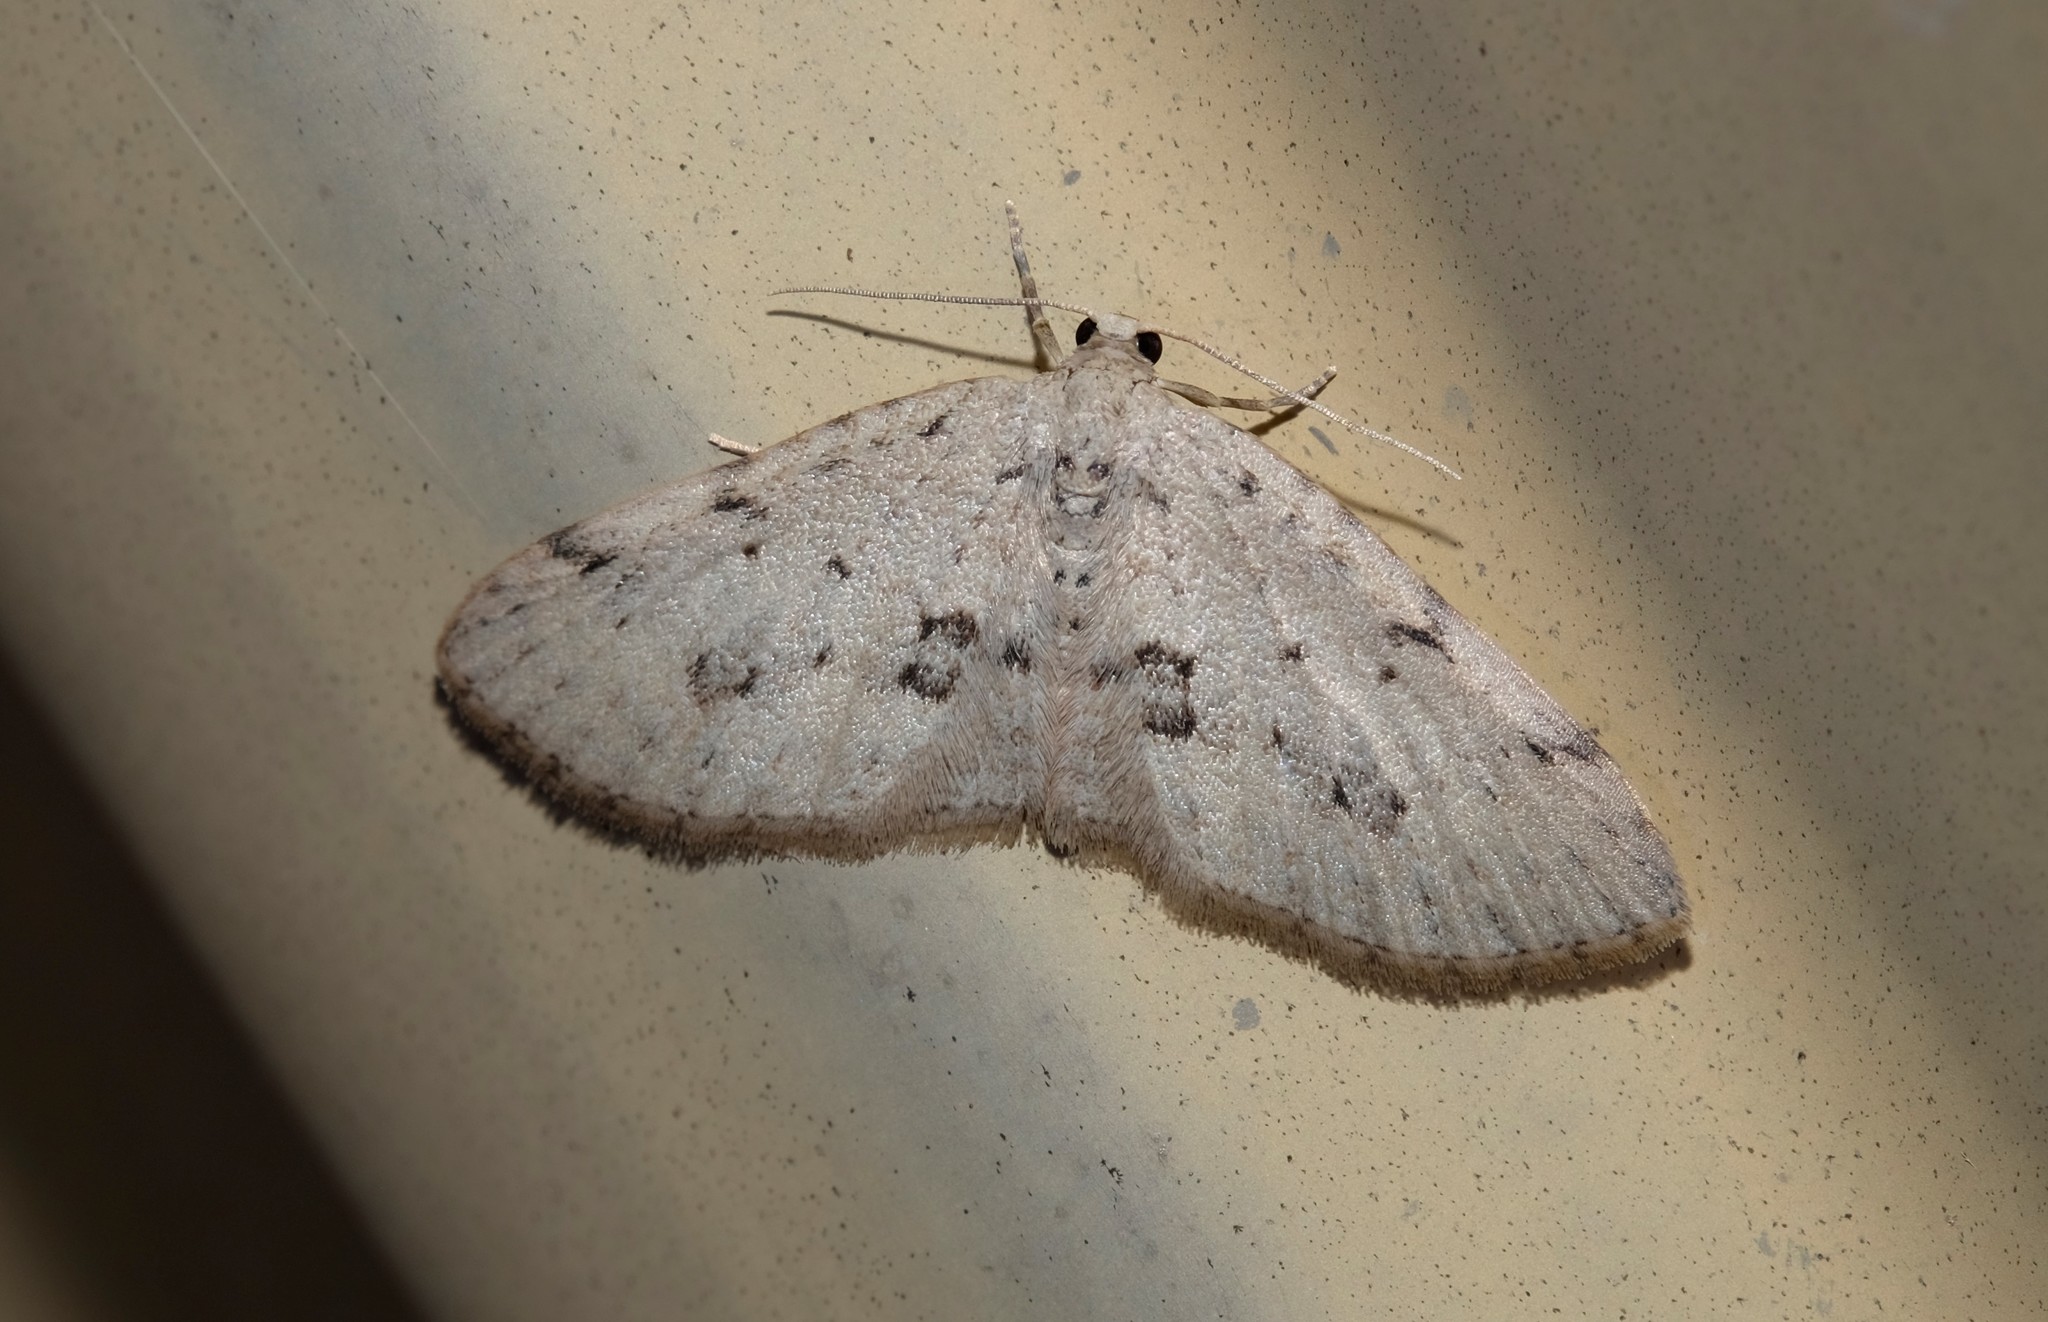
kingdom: Animalia
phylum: Arthropoda
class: Insecta
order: Lepidoptera
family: Geometridae
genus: Poecilasthena
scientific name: Poecilasthena scoliota
